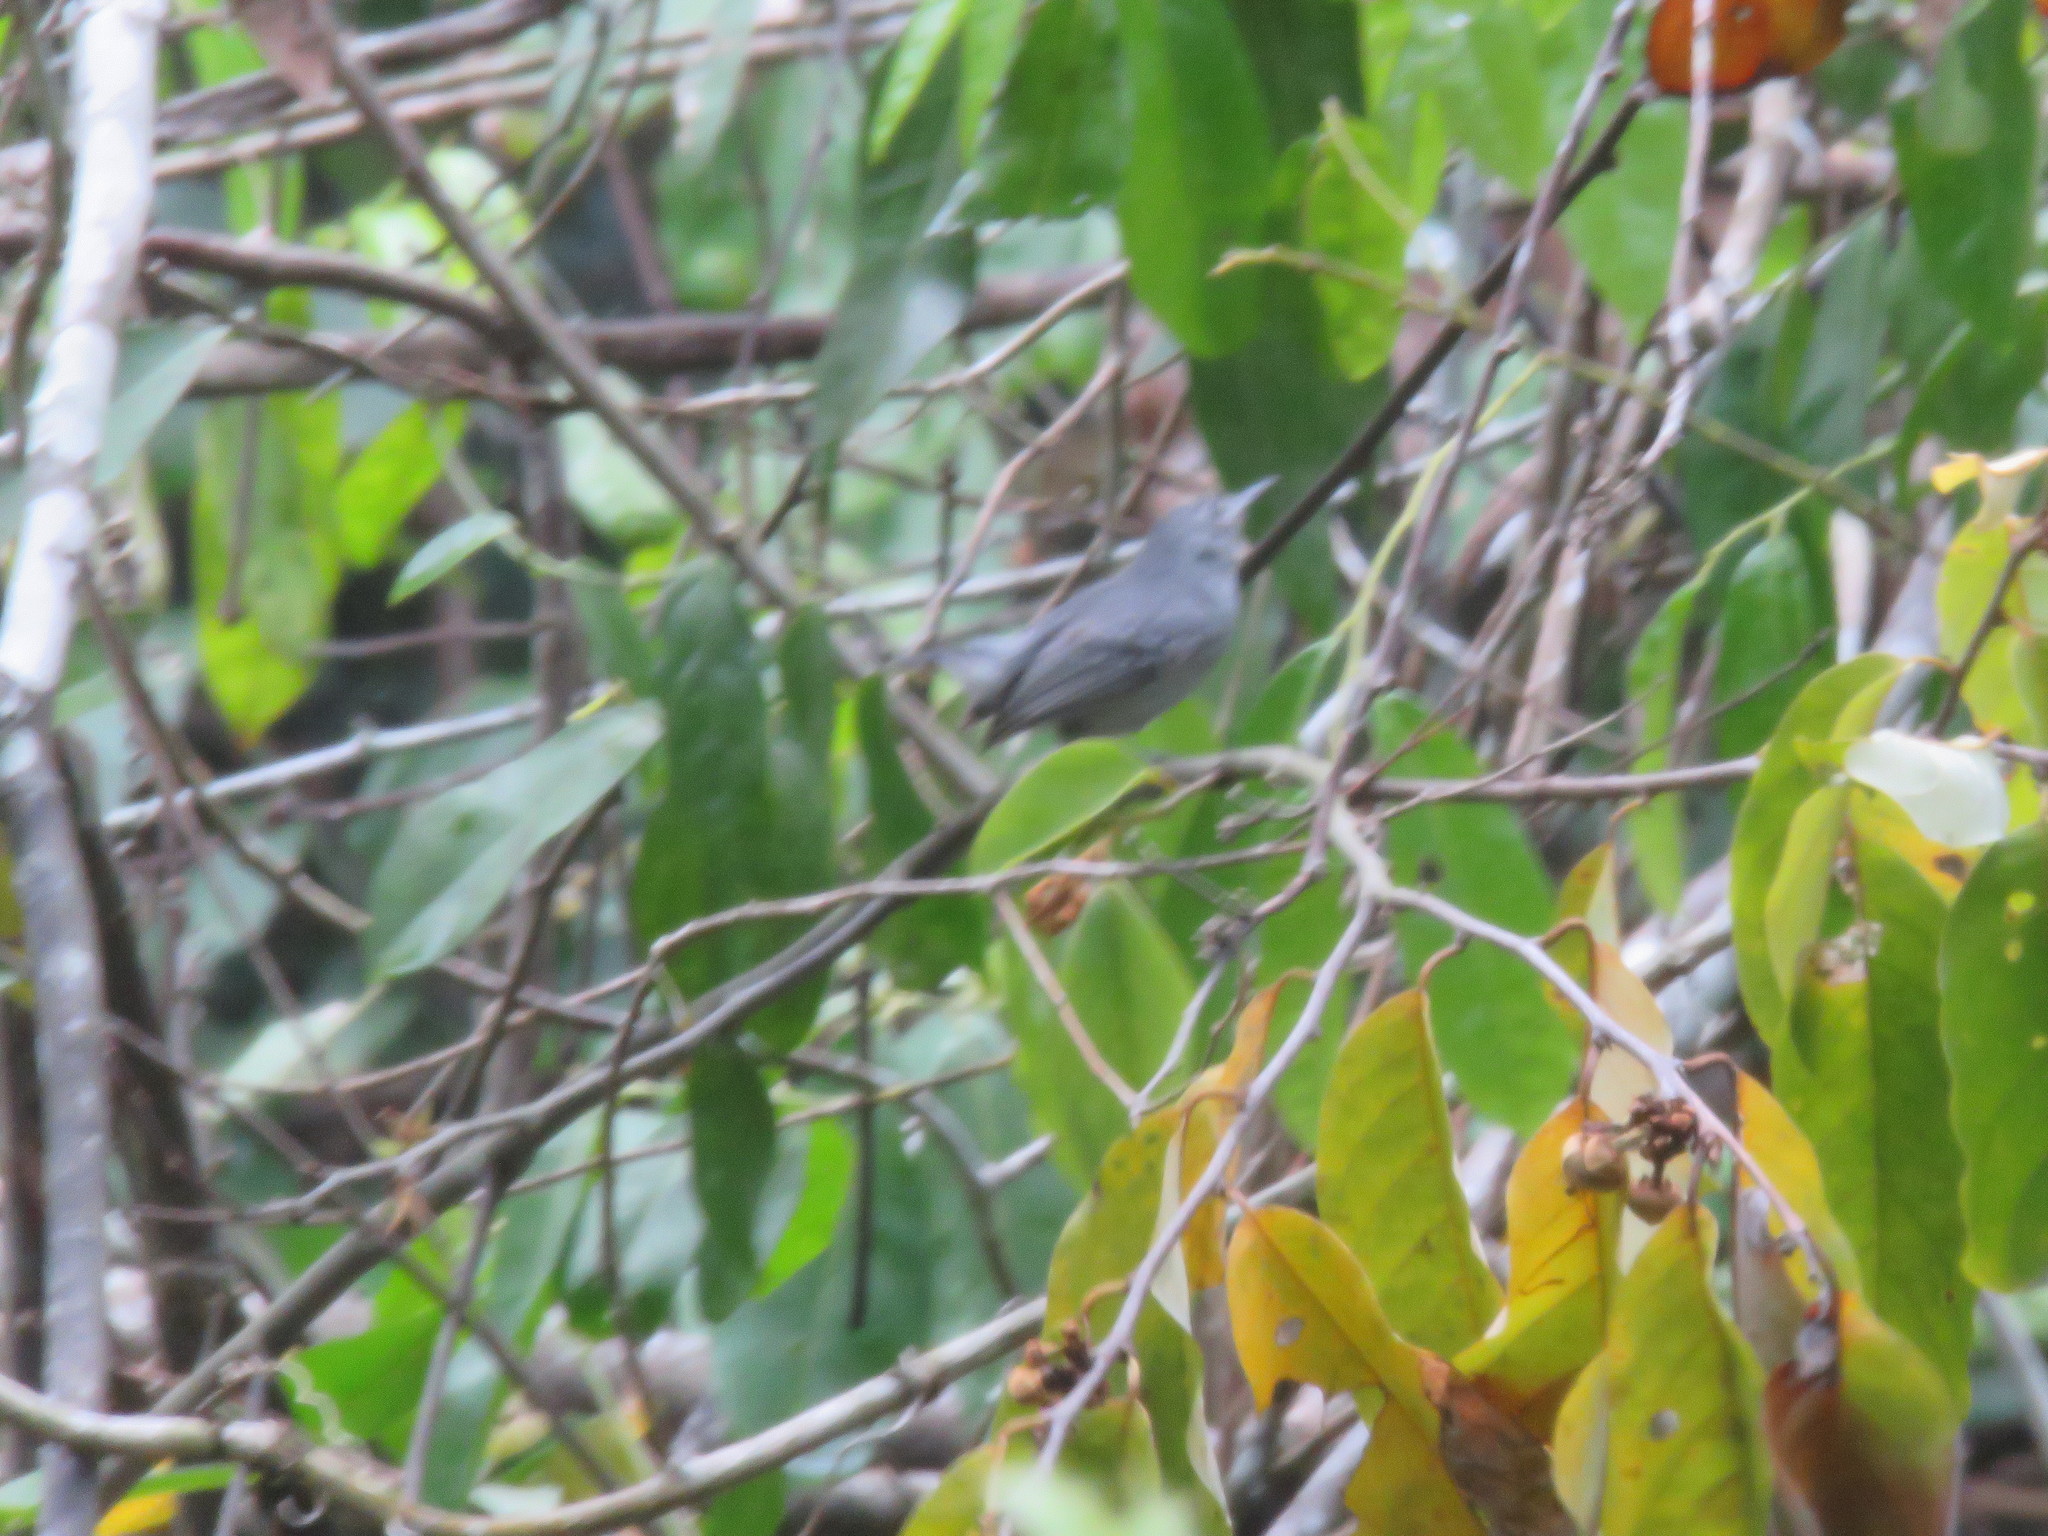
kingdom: Animalia
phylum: Chordata
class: Aves
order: Passeriformes
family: Thamnophilidae
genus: Myrmotherula
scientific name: Myrmotherula assimilis
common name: Leaden antwren
